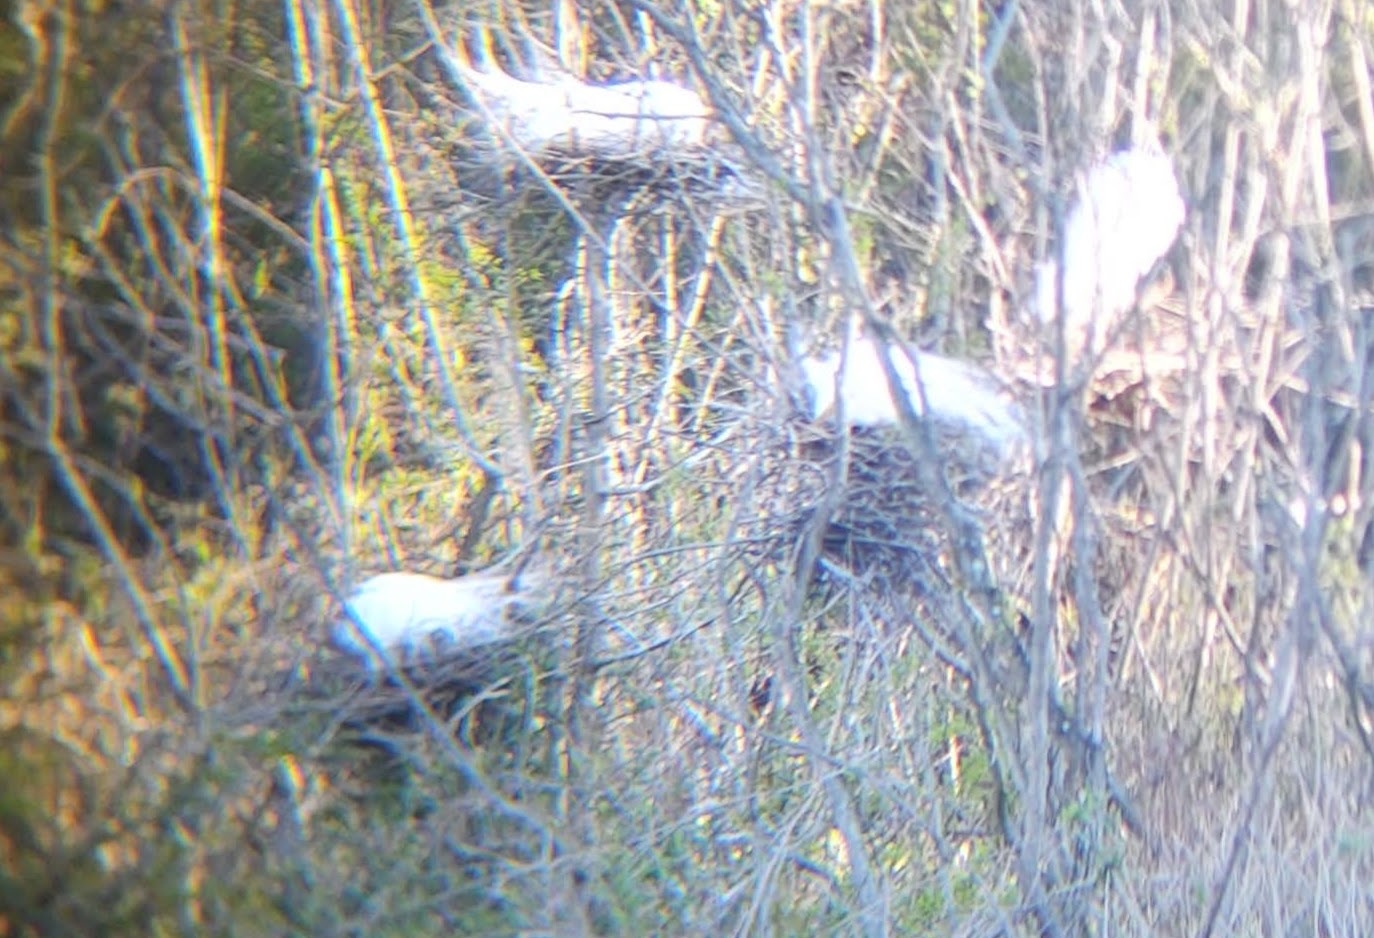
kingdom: Animalia
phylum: Chordata
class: Aves
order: Pelecaniformes
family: Ardeidae
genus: Ardea
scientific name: Ardea alba
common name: Great egret
